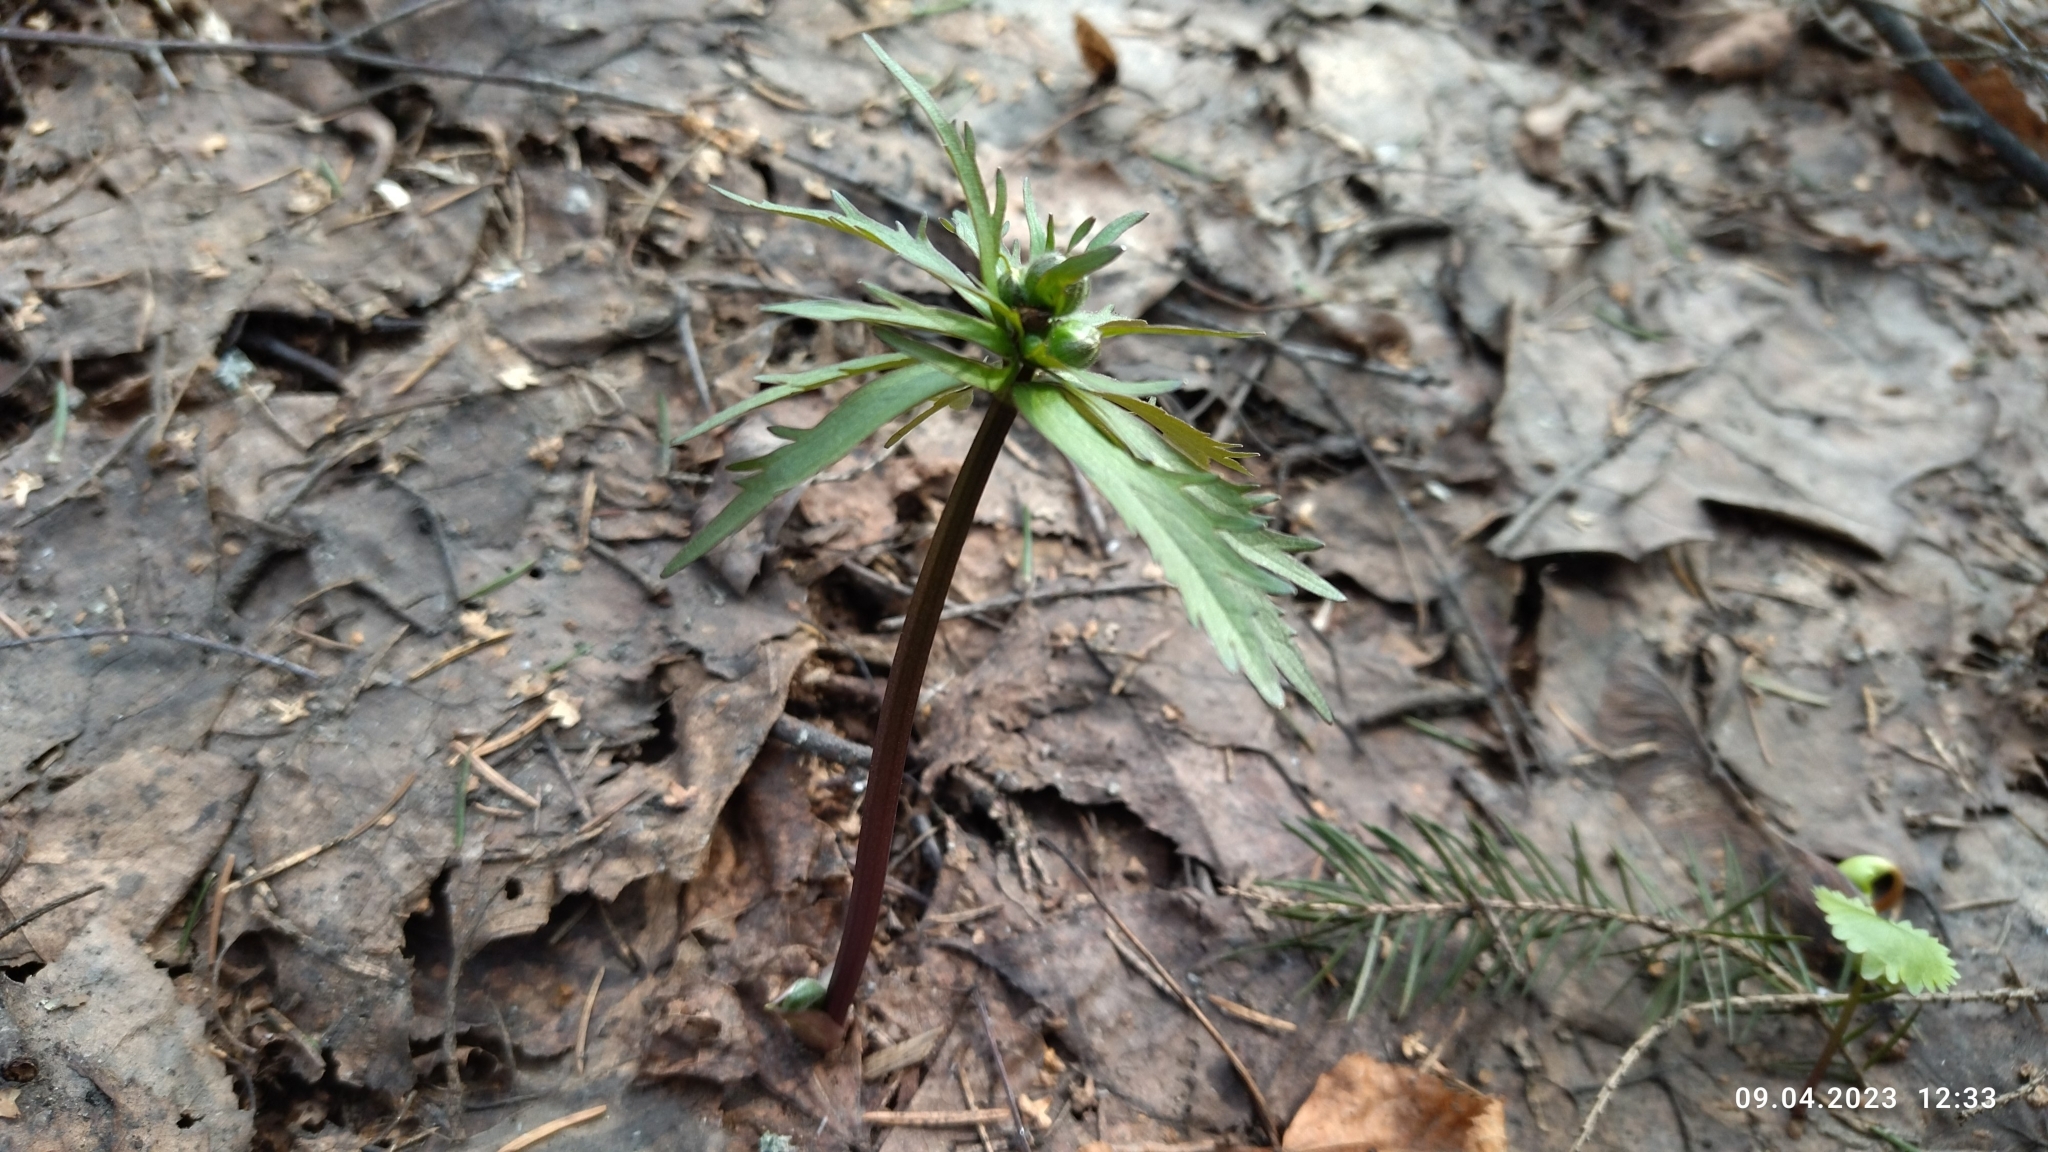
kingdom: Plantae
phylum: Tracheophyta
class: Magnoliopsida
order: Ranunculales
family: Ranunculaceae
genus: Ranunculus
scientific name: Ranunculus cassubicus
